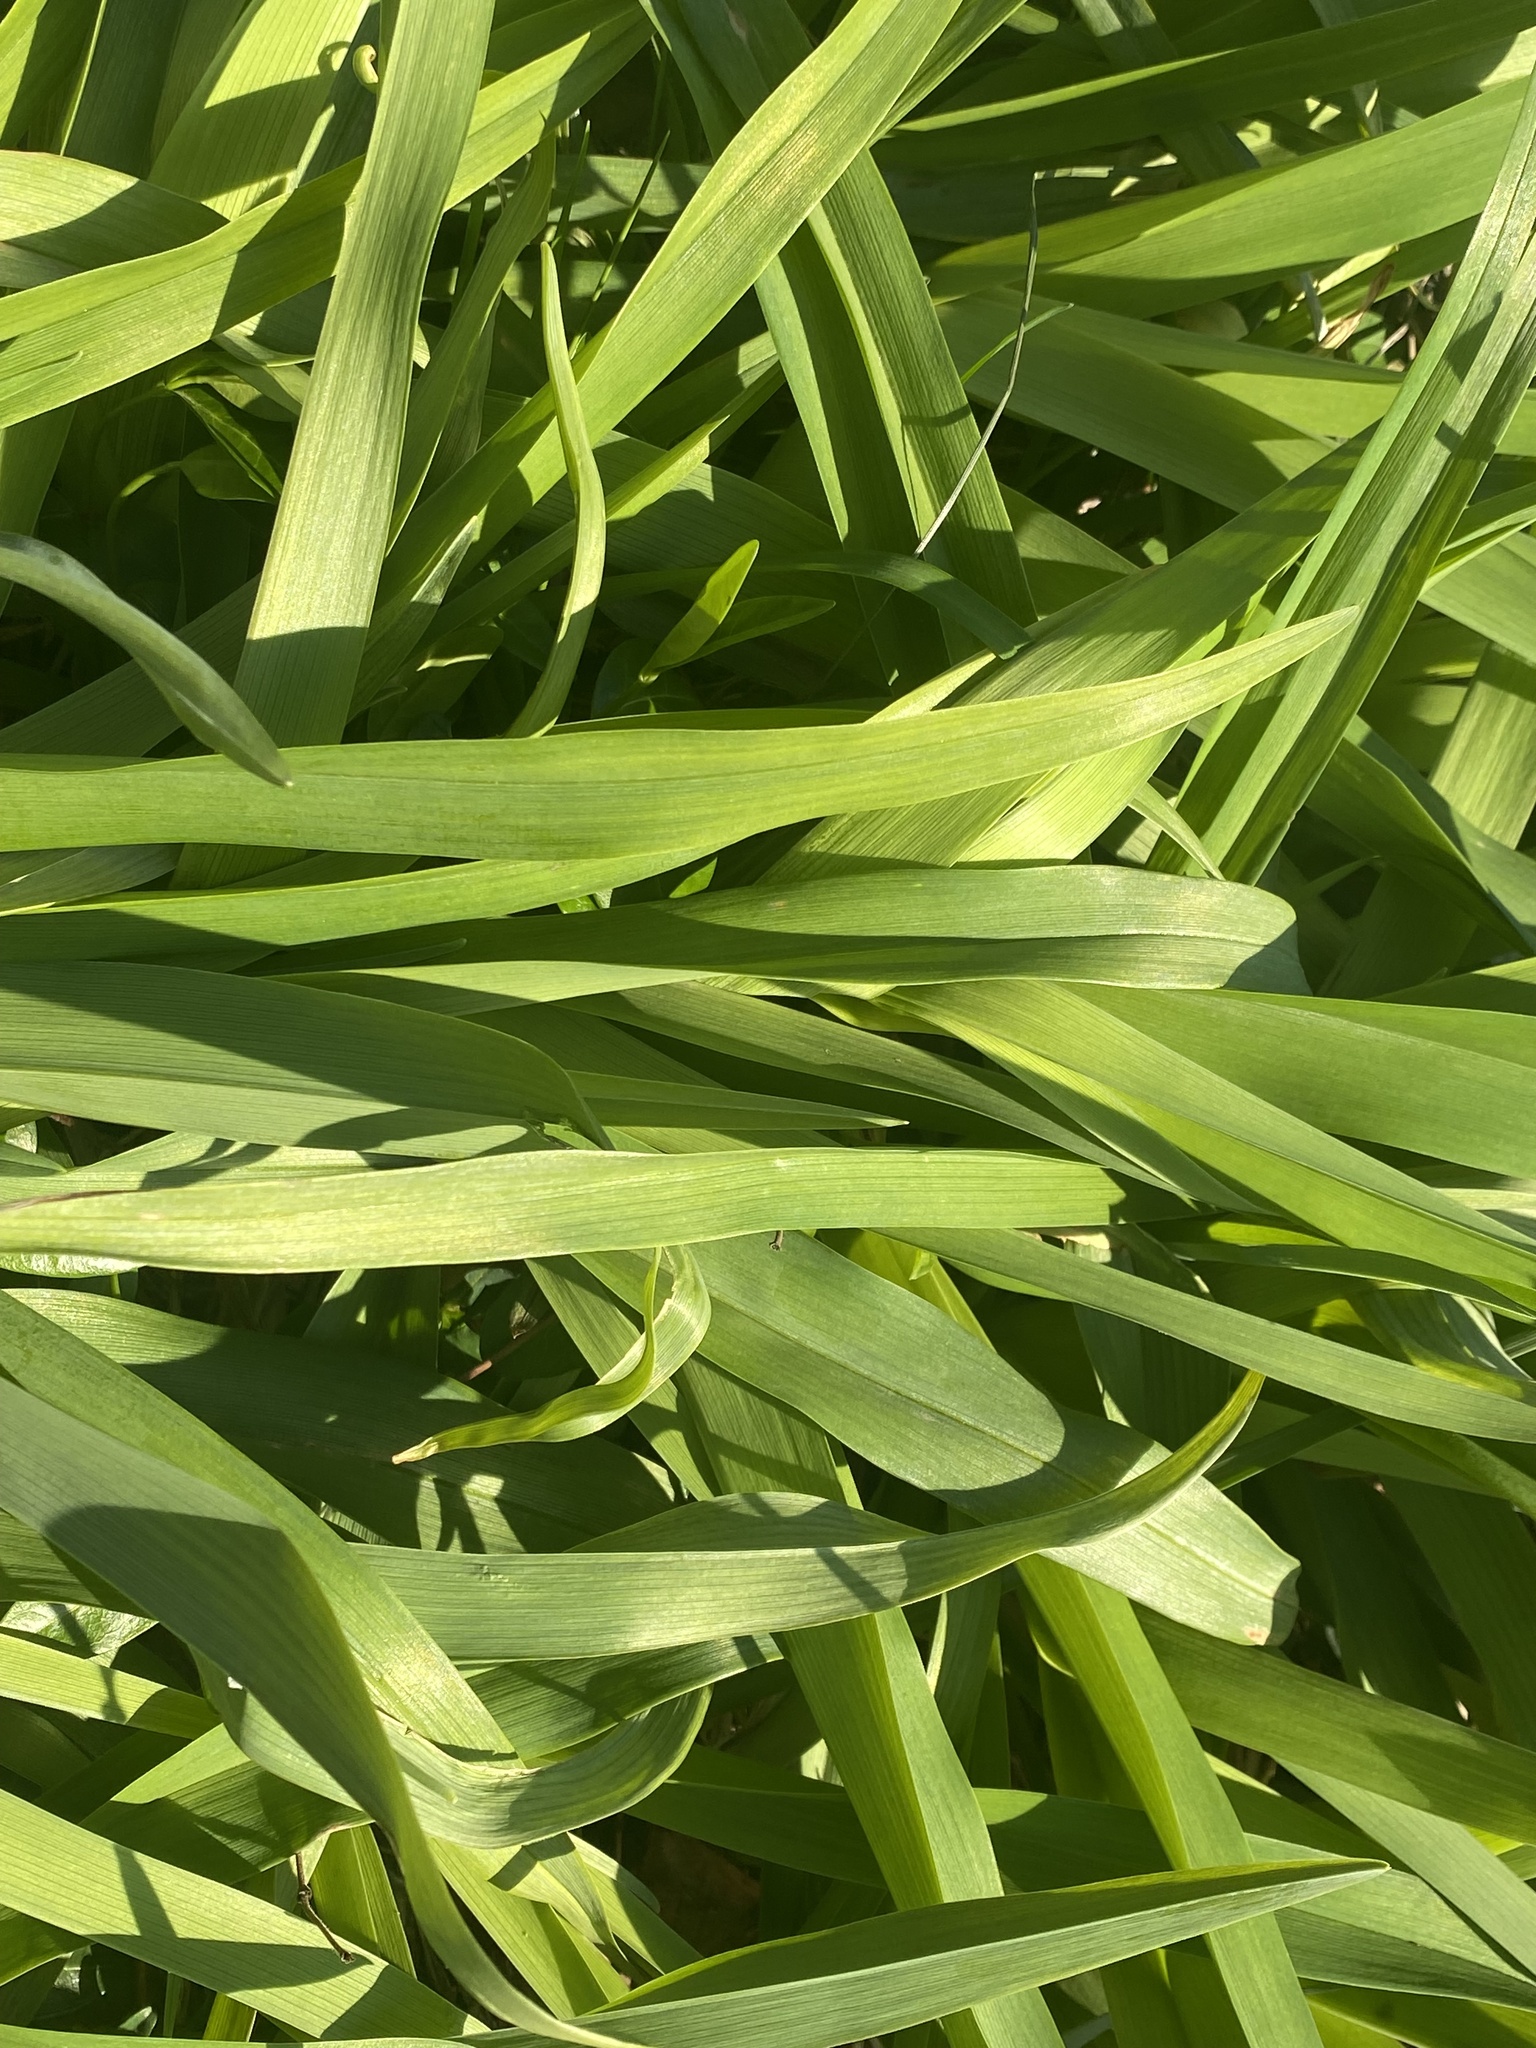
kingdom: Plantae
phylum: Tracheophyta
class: Liliopsida
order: Asparagales
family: Asphodelaceae
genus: Hemerocallis
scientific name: Hemerocallis fulva
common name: Orange day-lily
